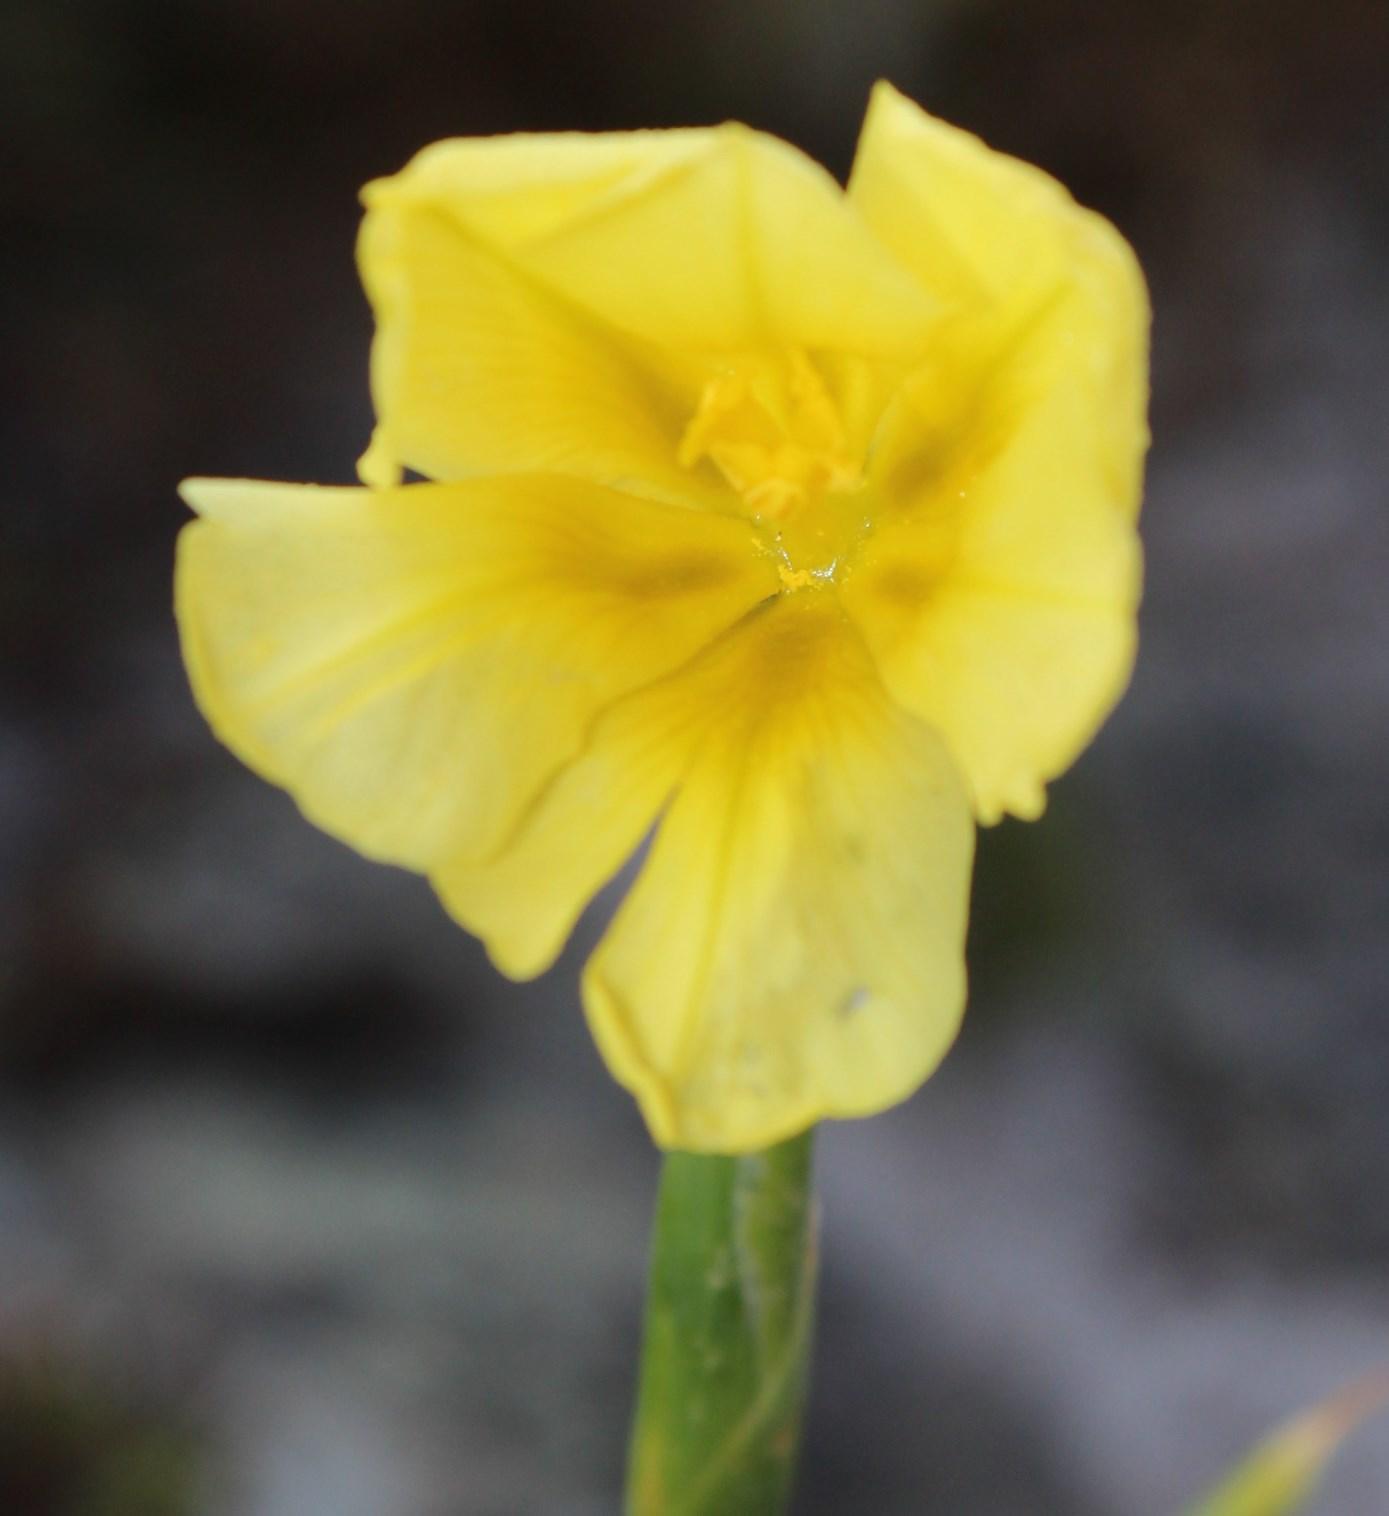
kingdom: Plantae
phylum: Tracheophyta
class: Liliopsida
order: Asparagales
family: Iridaceae
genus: Moraea
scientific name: Moraea ochroleuca
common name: Red tulp
